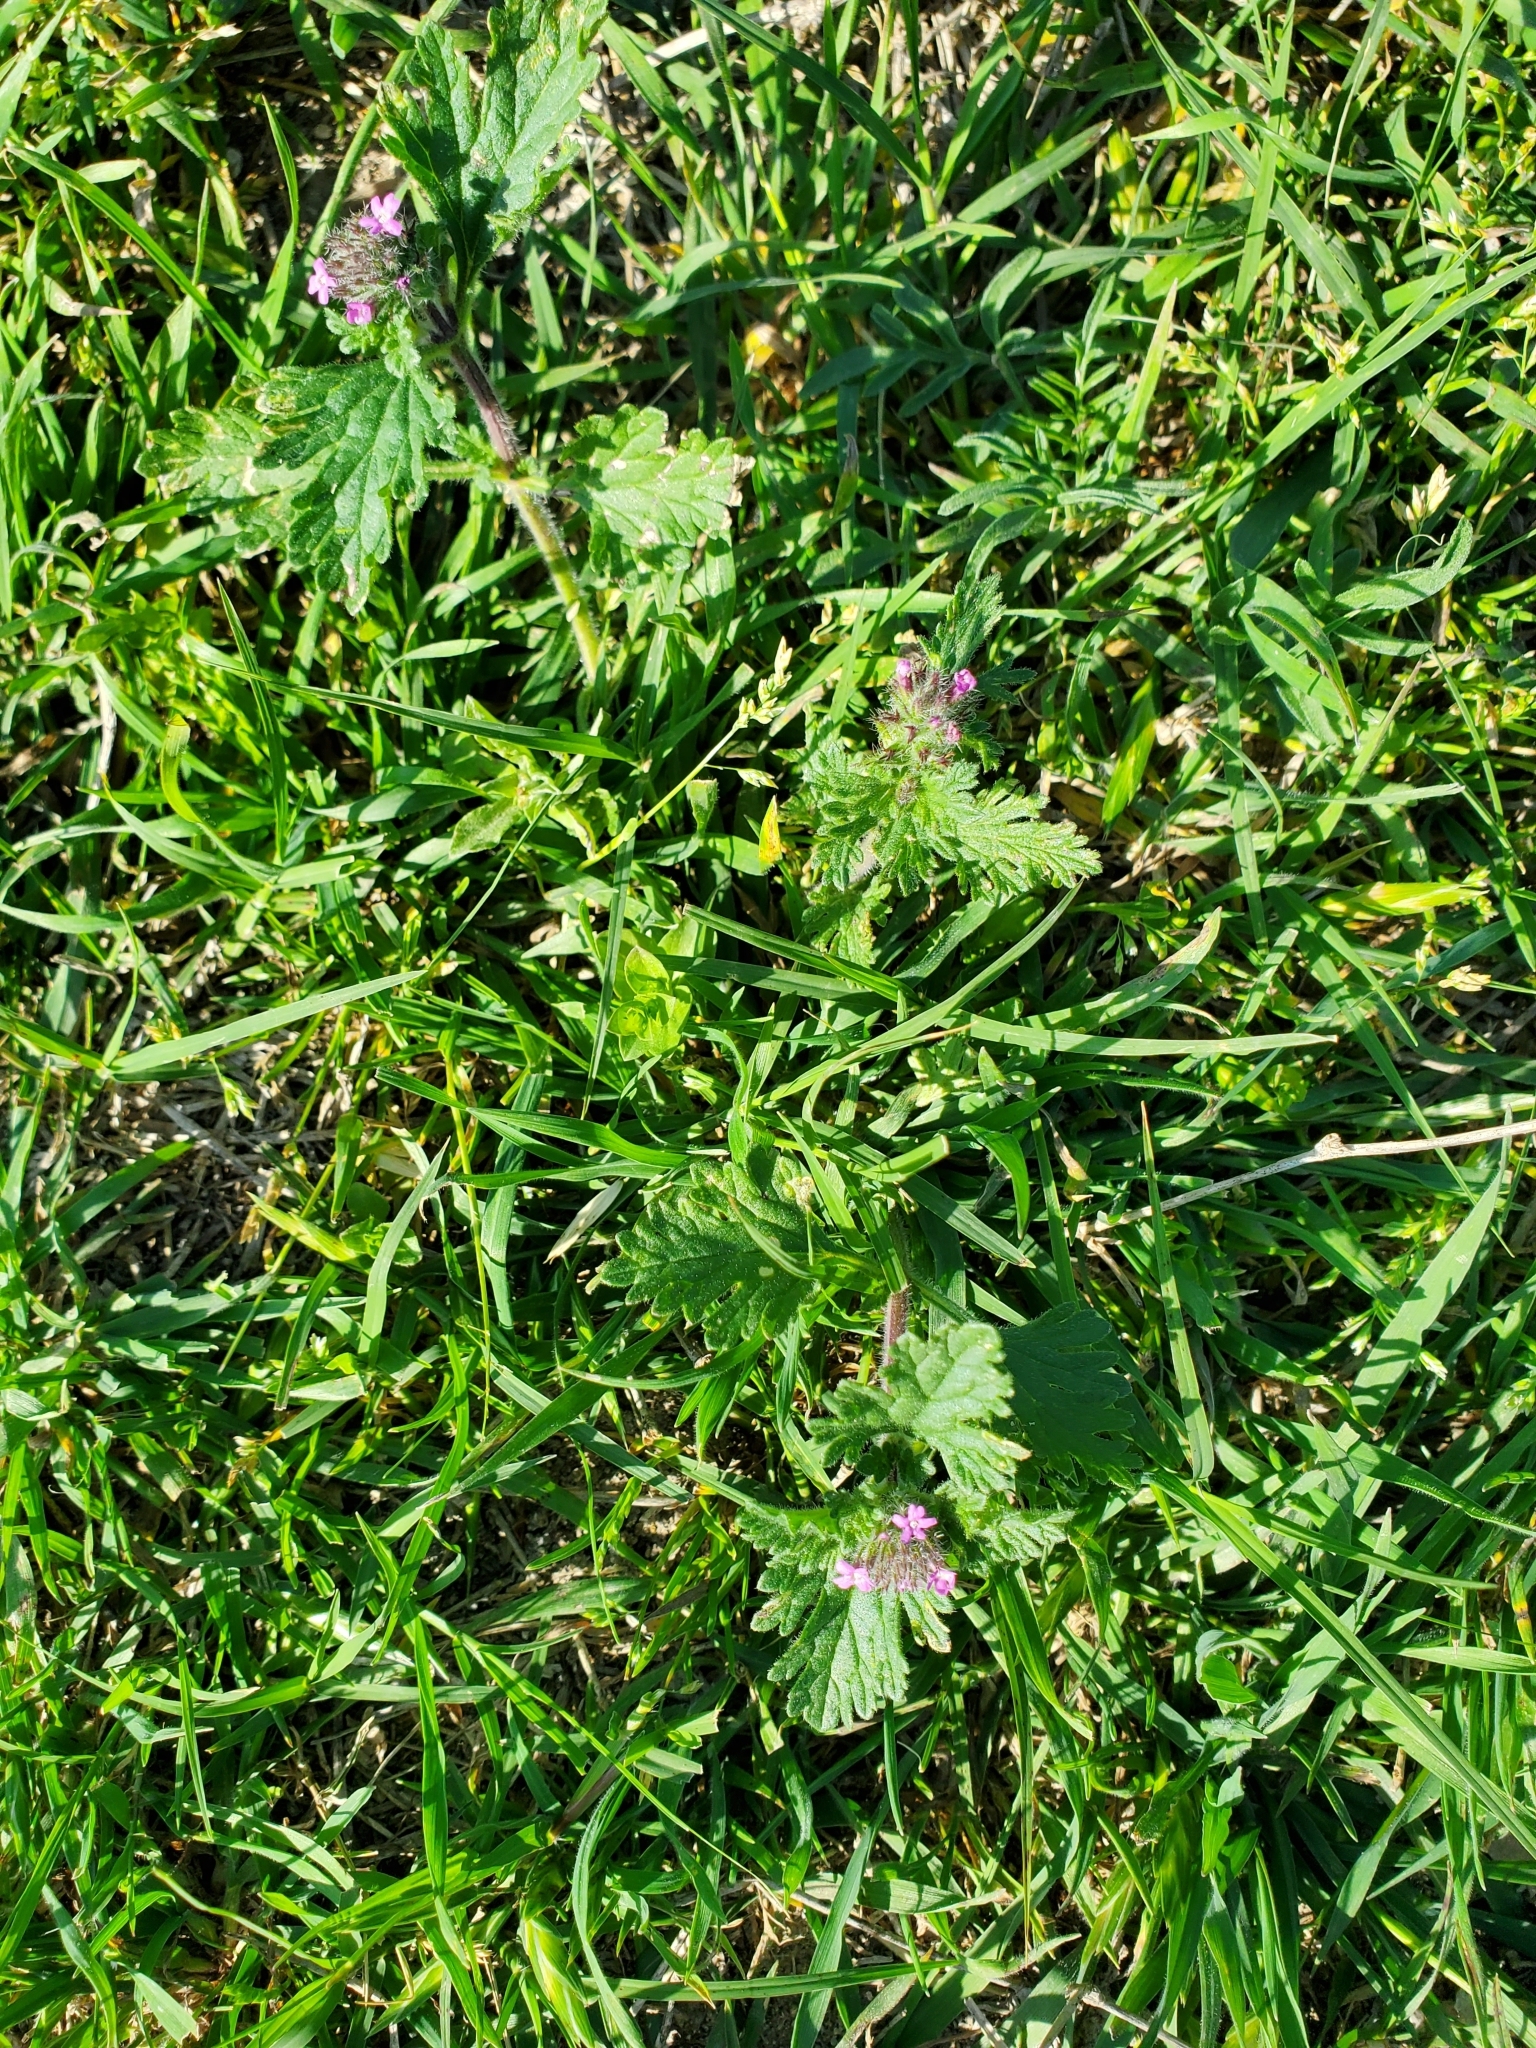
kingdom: Plantae
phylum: Tracheophyta
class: Magnoliopsida
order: Lamiales
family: Verbenaceae
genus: Verbena
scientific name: Verbena pumila
